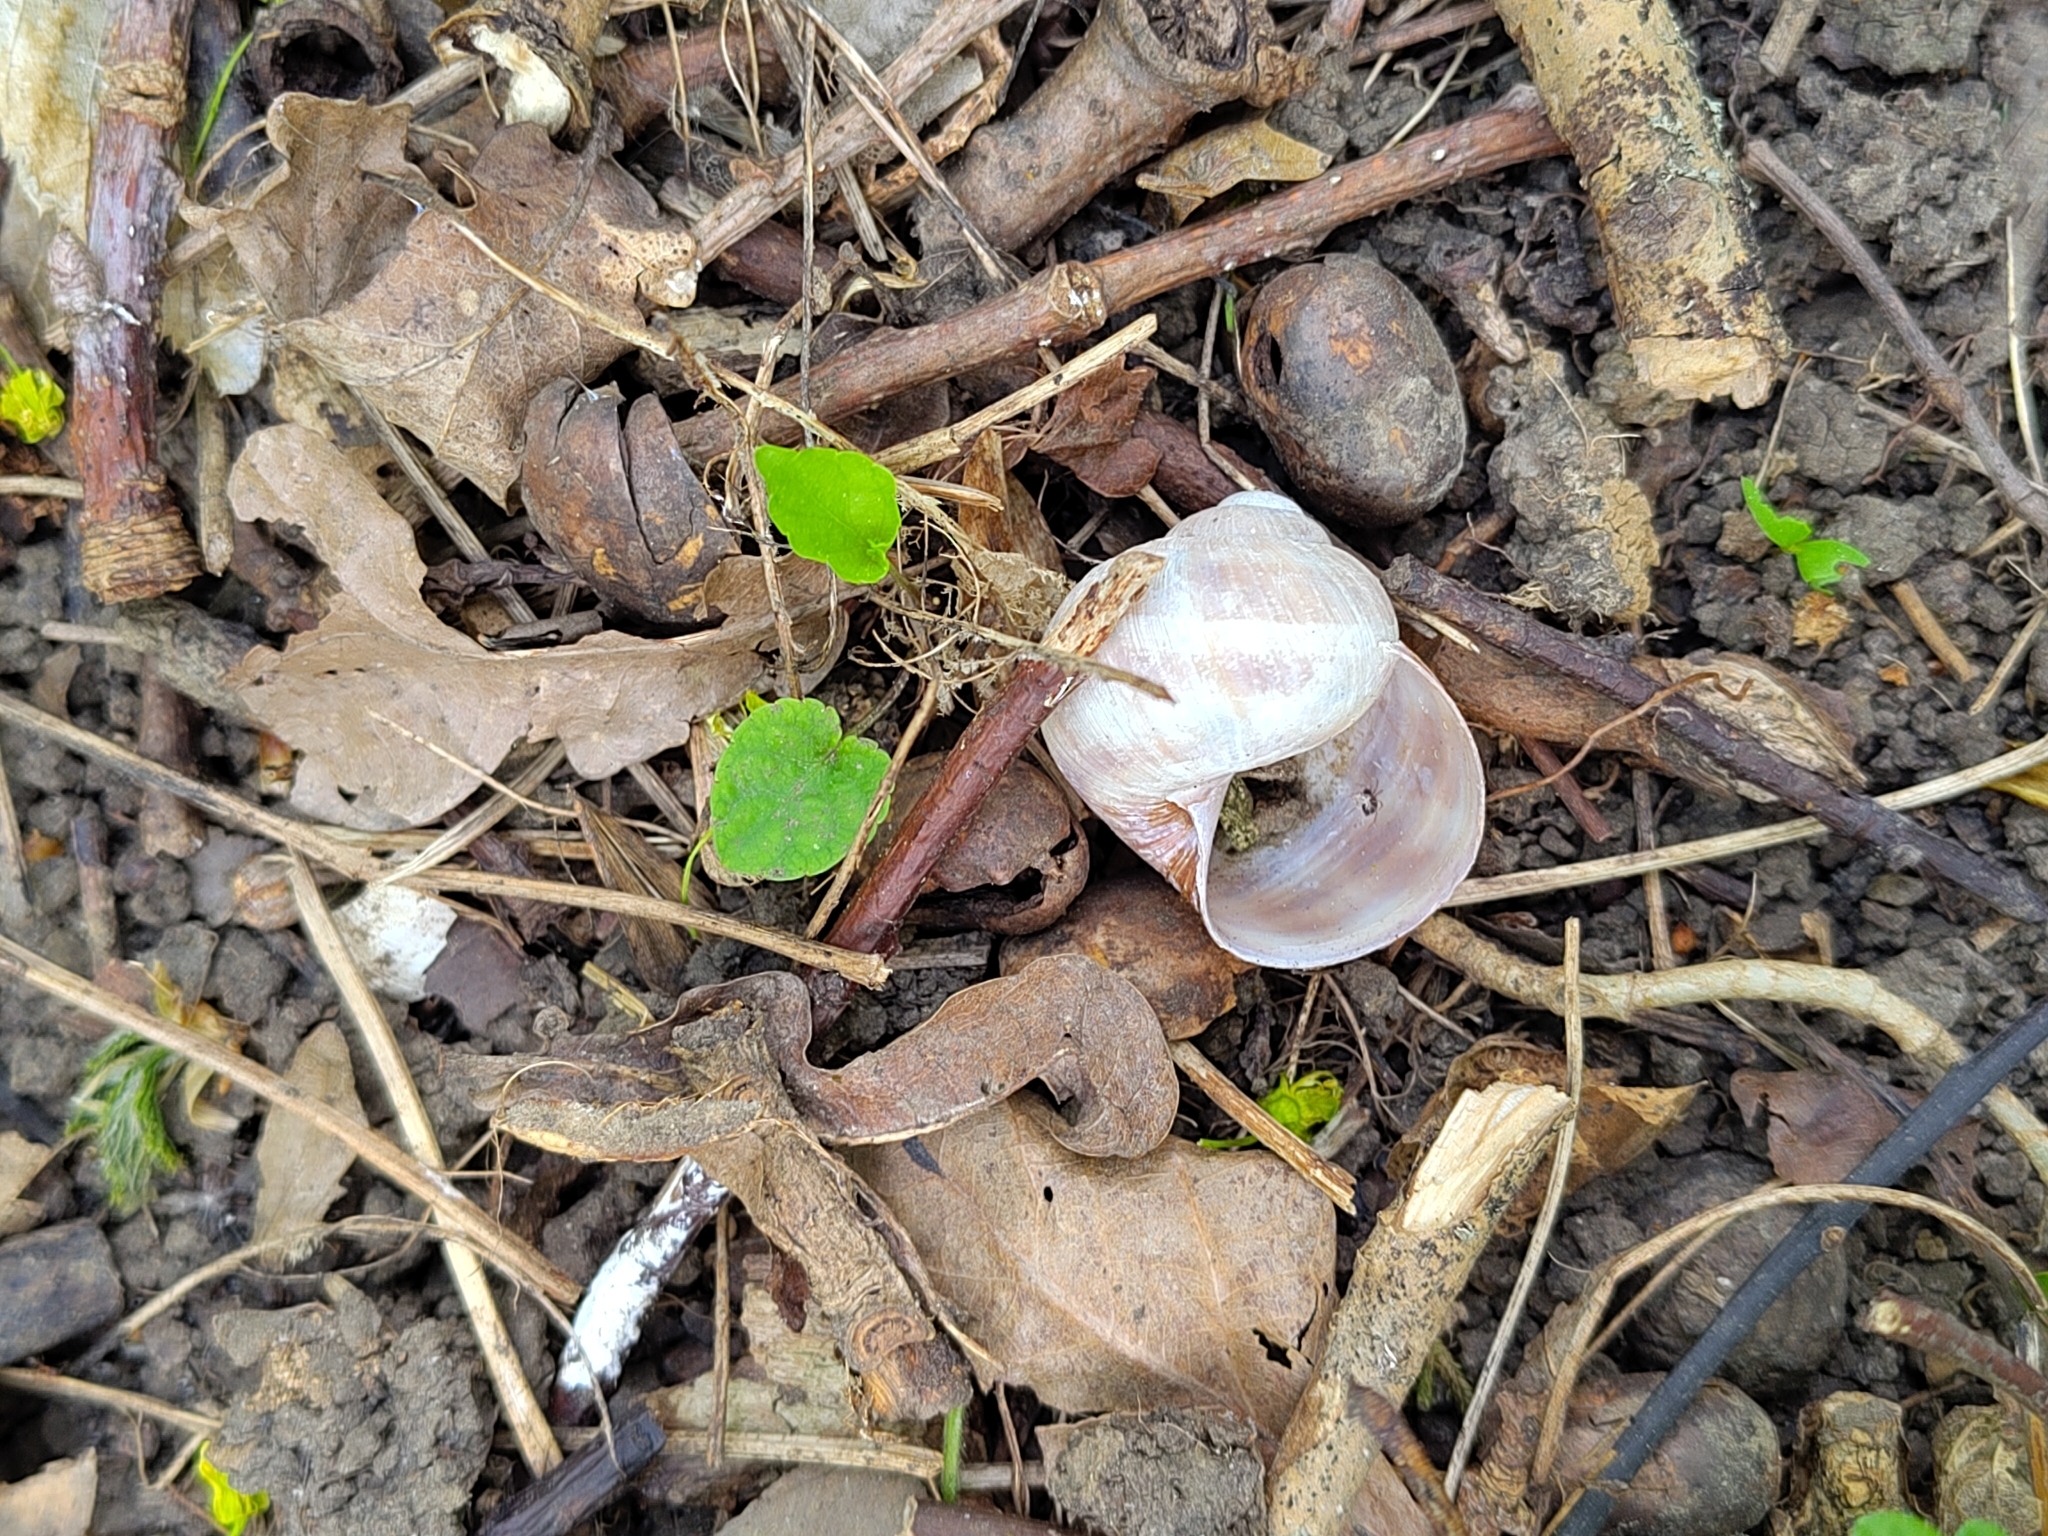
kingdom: Animalia
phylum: Mollusca
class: Gastropoda
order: Stylommatophora
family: Helicidae
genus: Helix
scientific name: Helix pomatia
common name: Roman snail
